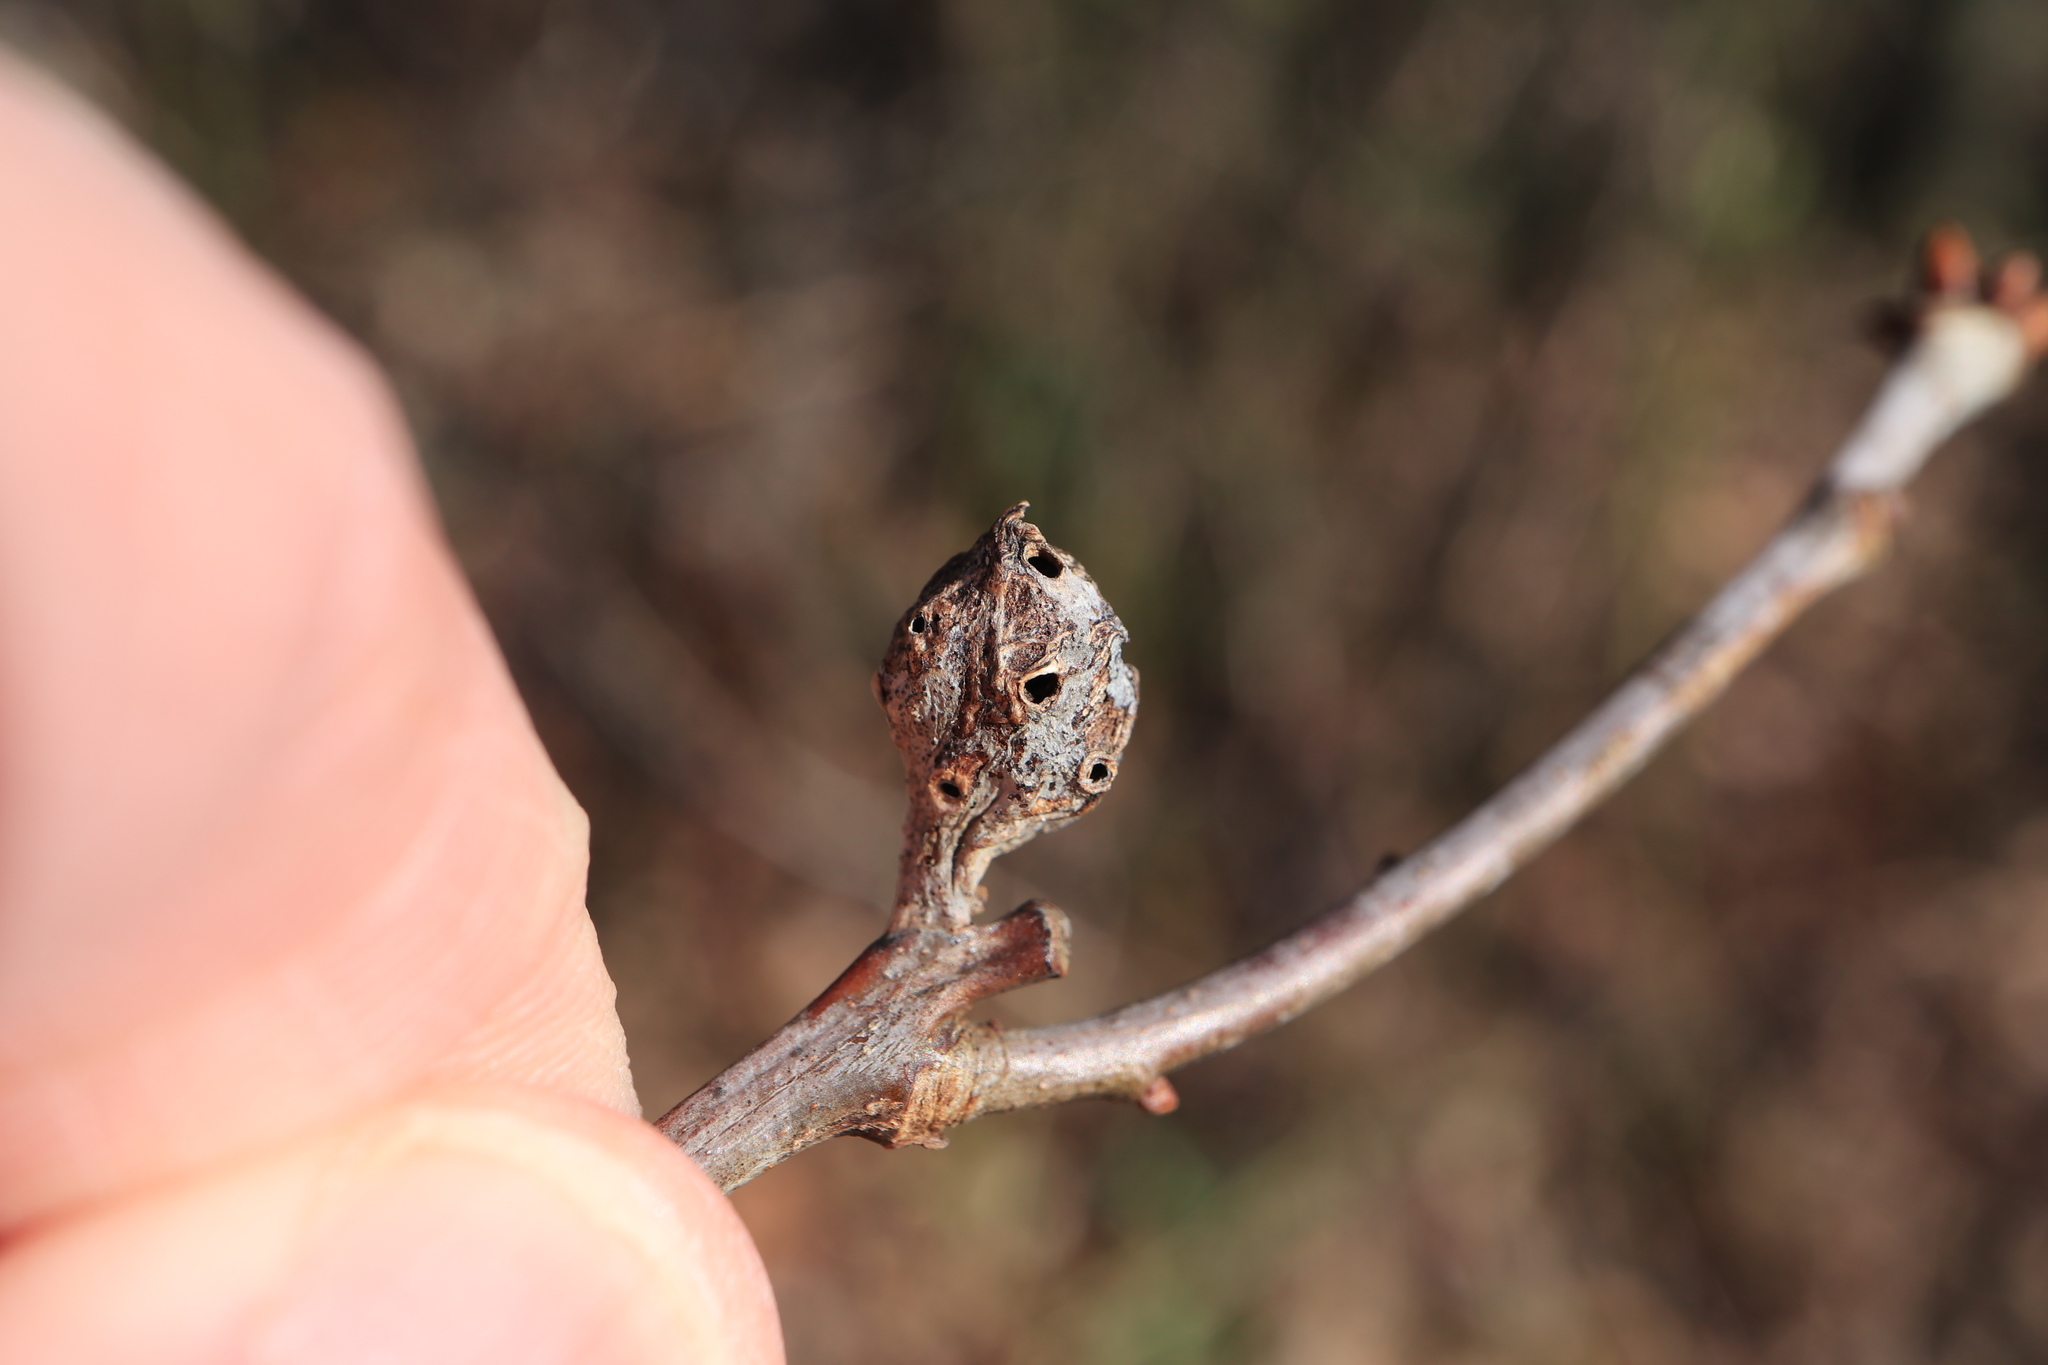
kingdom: Animalia
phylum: Arthropoda
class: Insecta
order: Hymenoptera
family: Cynipidae
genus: Andricus
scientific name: Andricus
